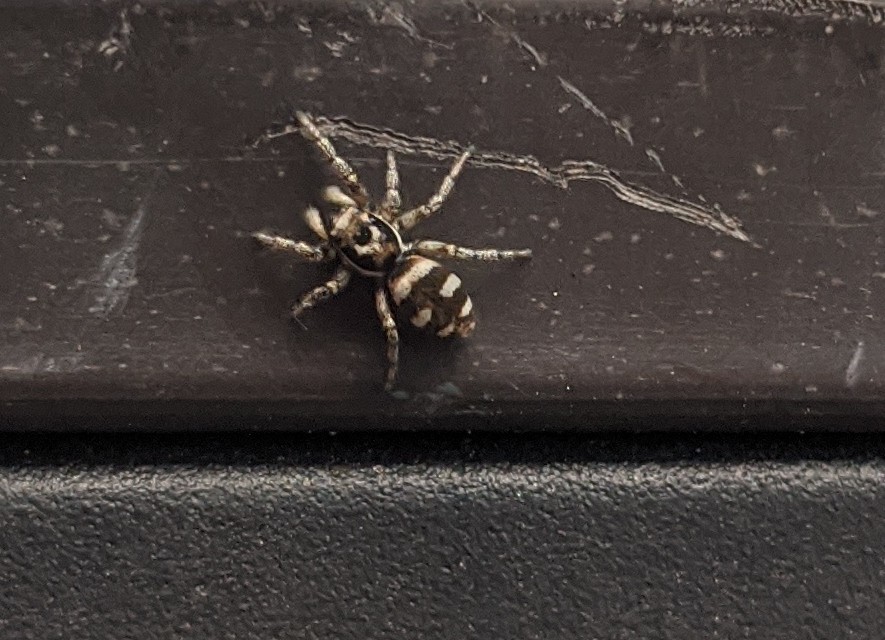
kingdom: Animalia
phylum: Arthropoda
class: Arachnida
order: Araneae
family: Salticidae
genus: Salticus
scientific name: Salticus scenicus
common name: Zebra jumper
